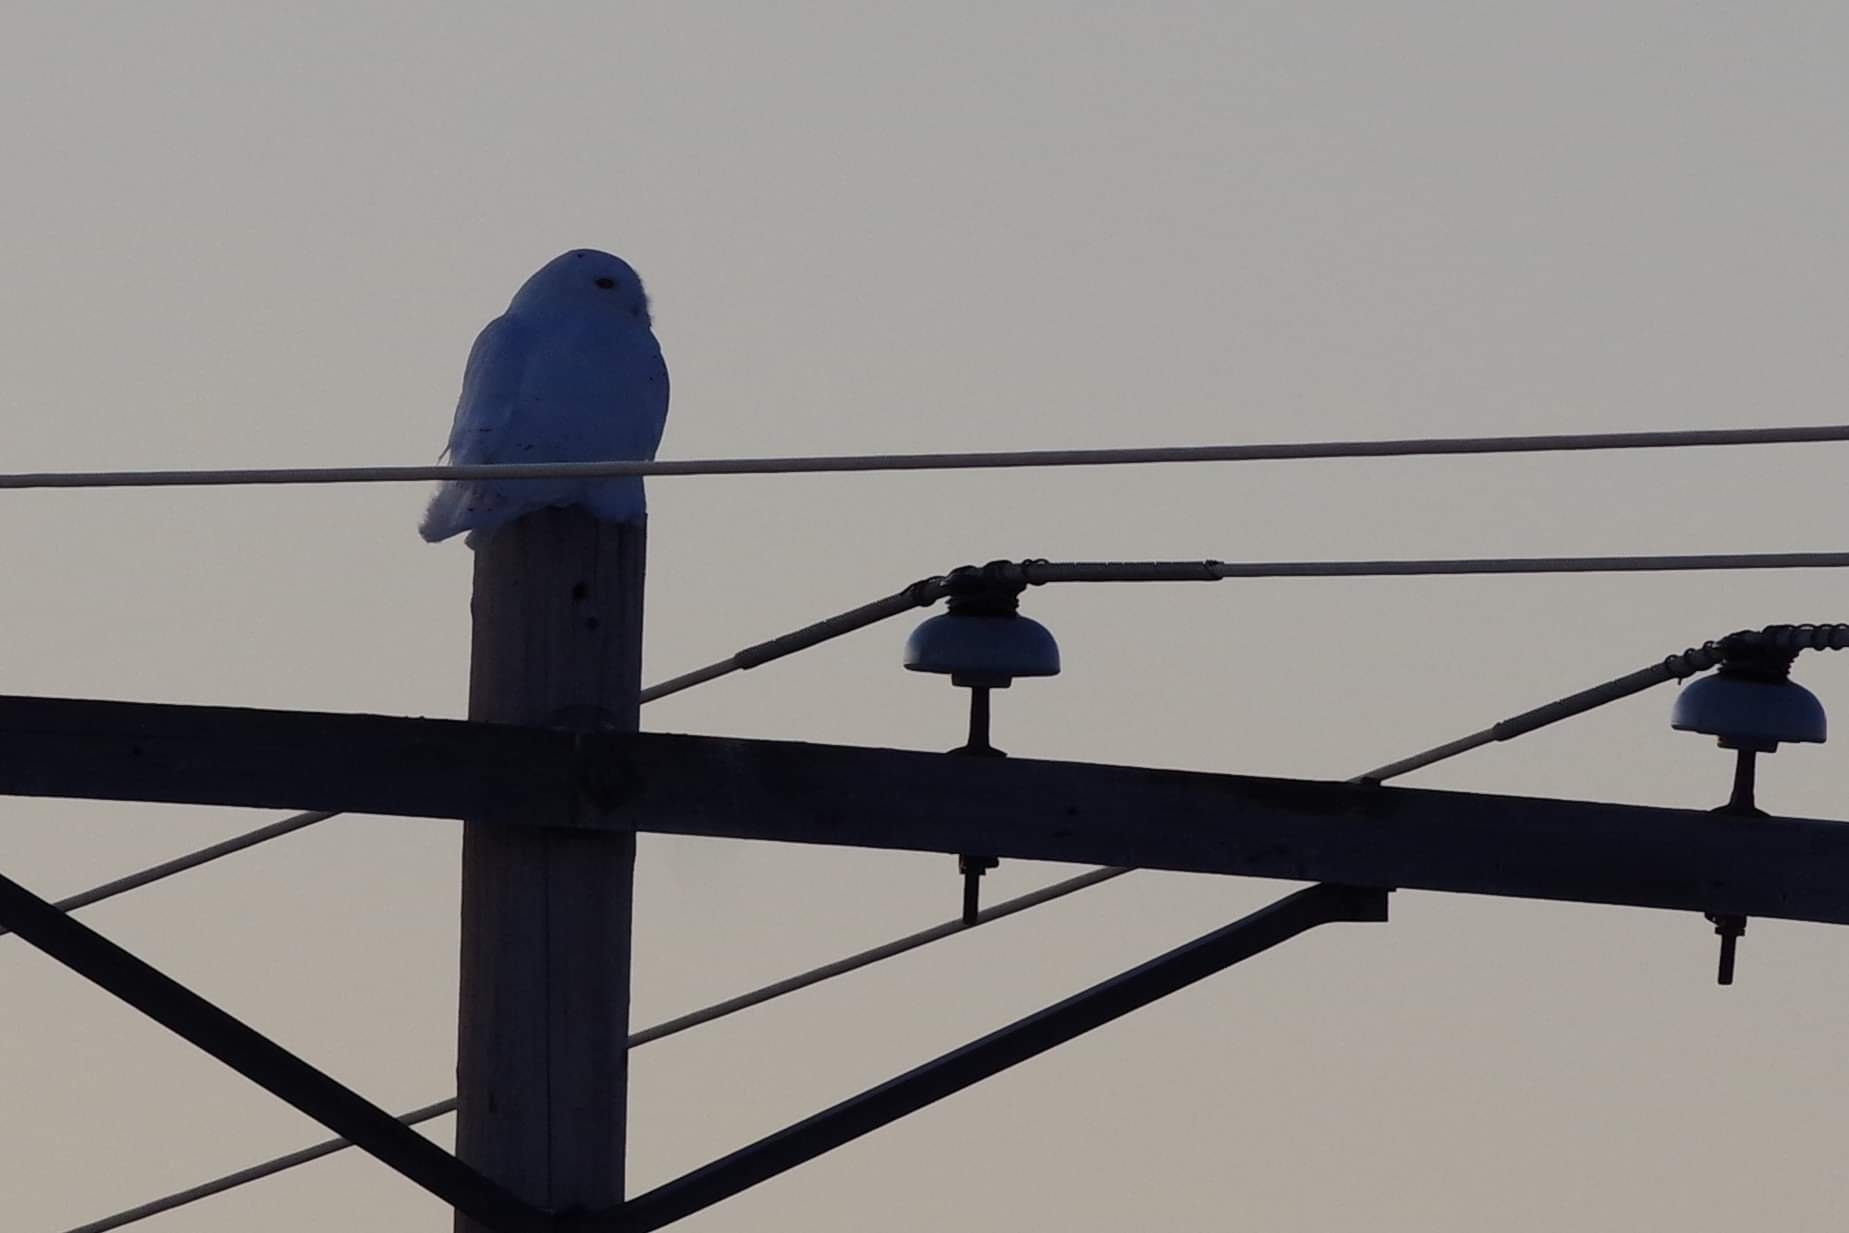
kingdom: Animalia
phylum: Chordata
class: Aves
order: Strigiformes
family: Strigidae
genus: Bubo
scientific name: Bubo scandiacus
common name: Snowy owl
